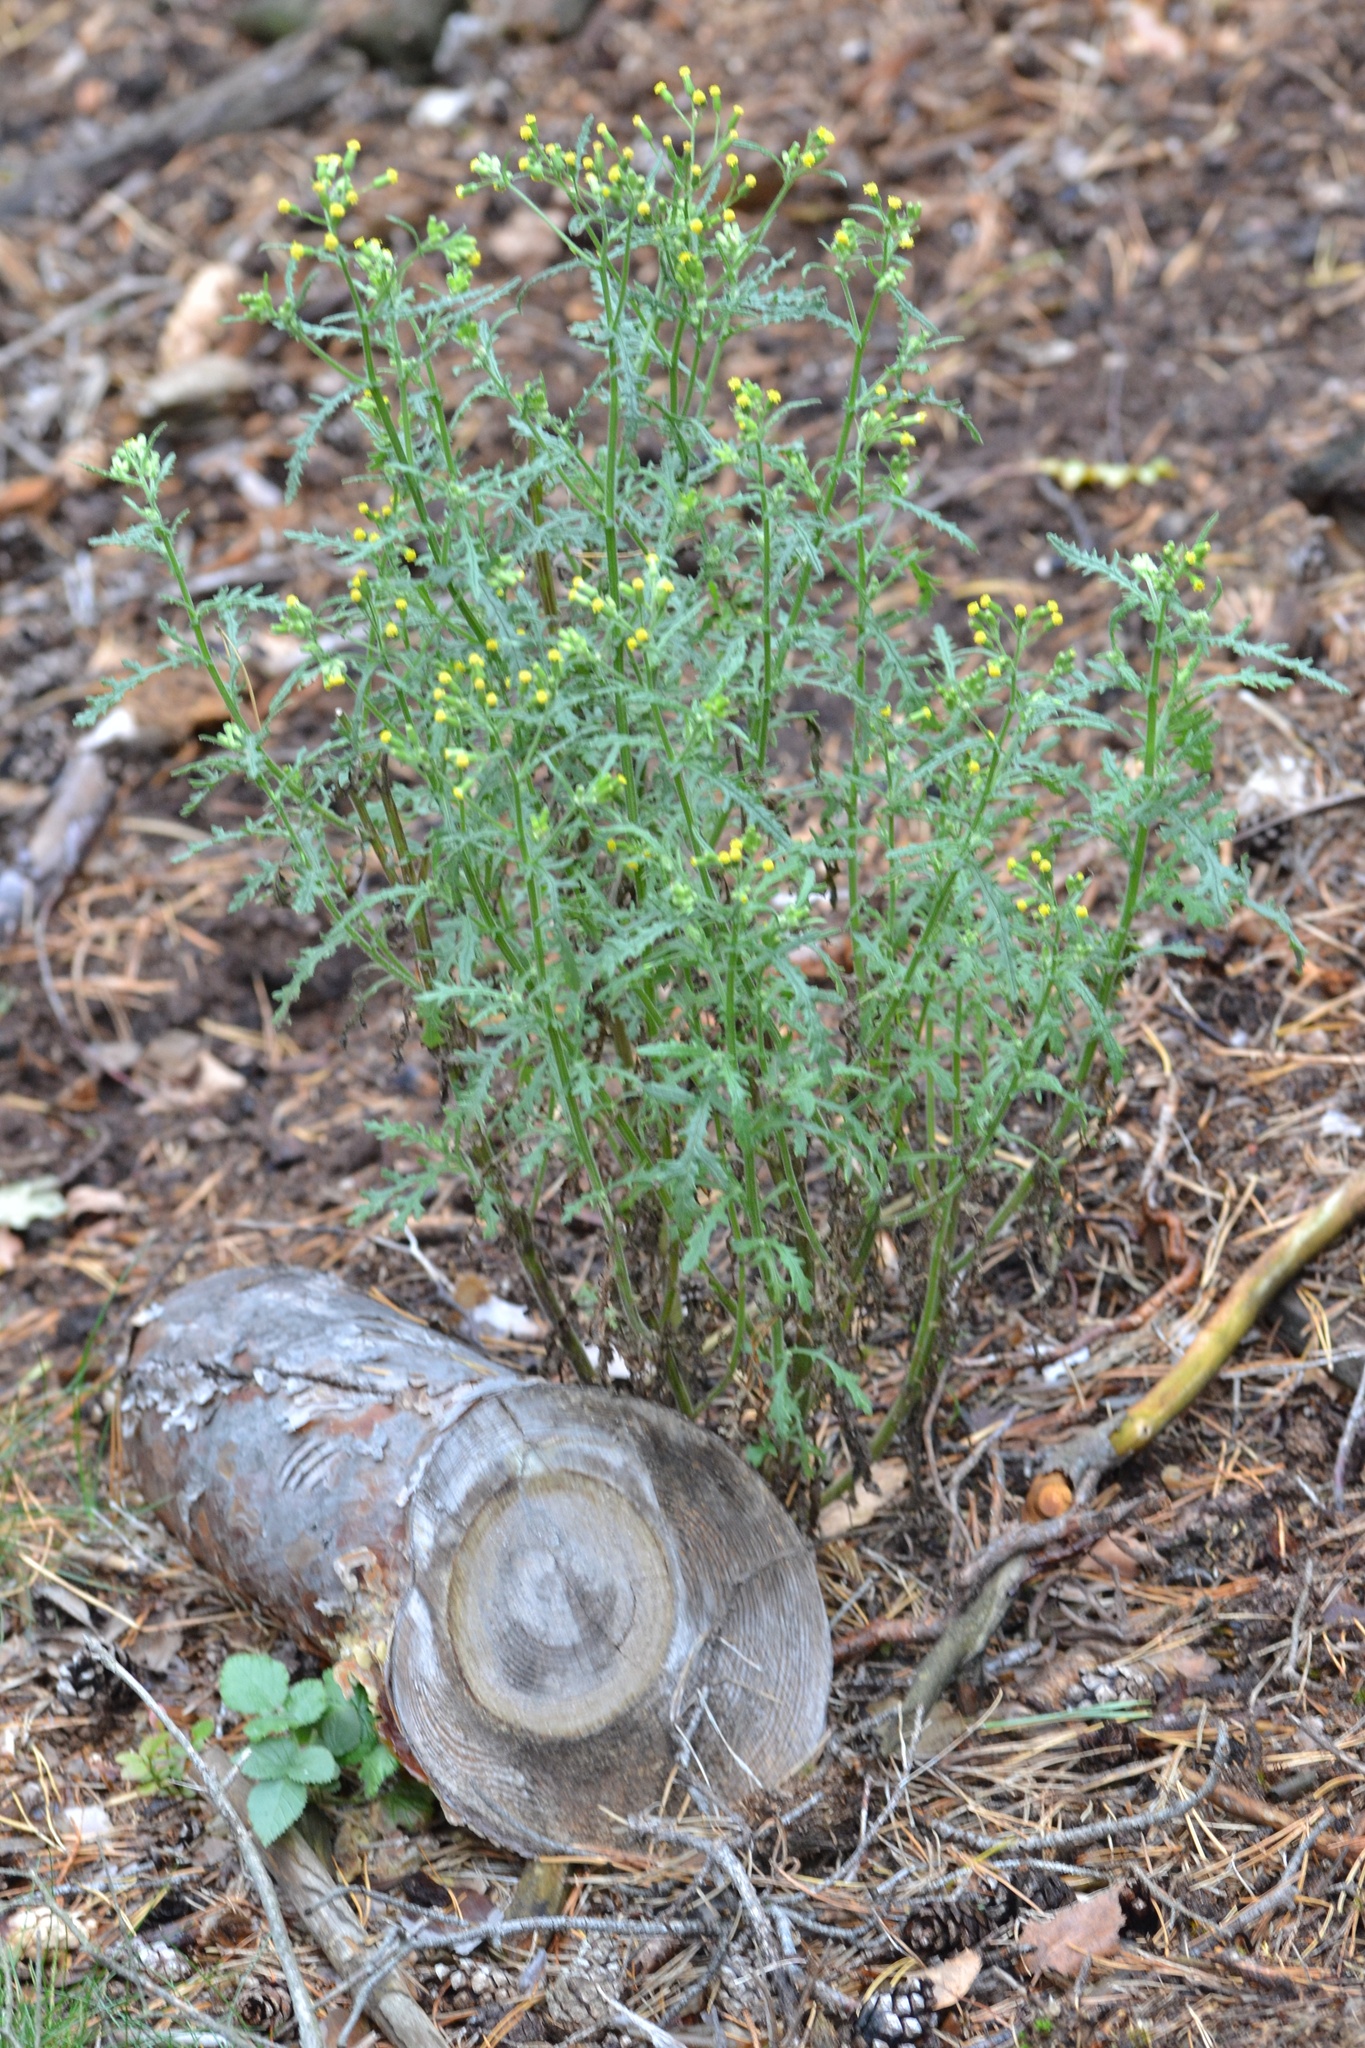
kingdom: Plantae
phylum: Tracheophyta
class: Magnoliopsida
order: Asterales
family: Asteraceae
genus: Senecio
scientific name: Senecio sylvaticus
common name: Woodland ragwort
